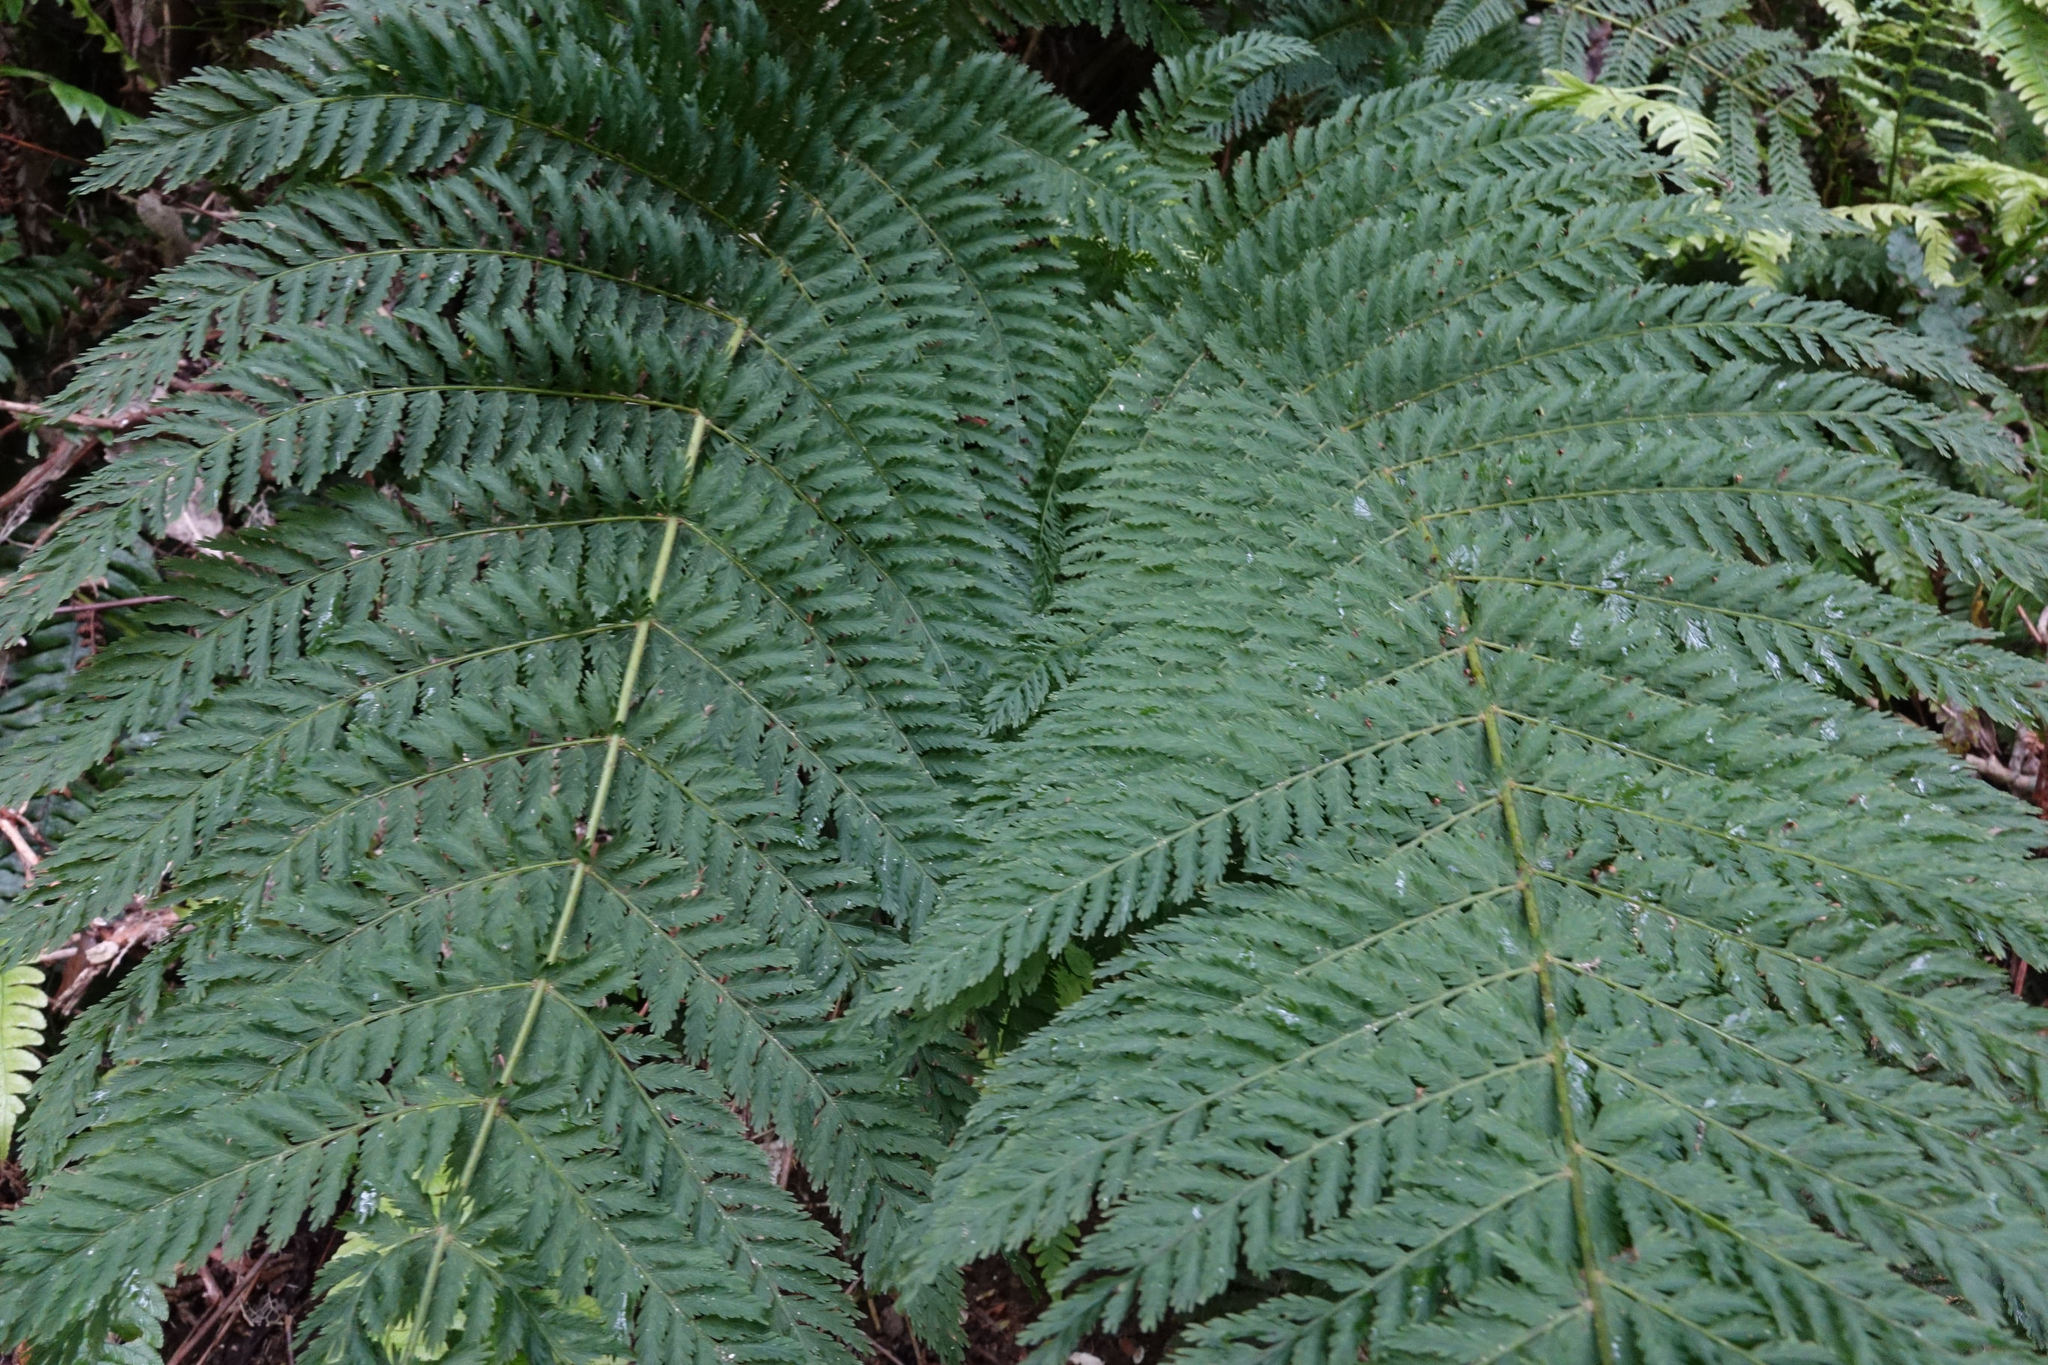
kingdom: Plantae
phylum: Tracheophyta
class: Polypodiopsida
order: Osmundales
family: Osmundaceae
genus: Leptopteris
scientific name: Leptopteris hymenophylloides
